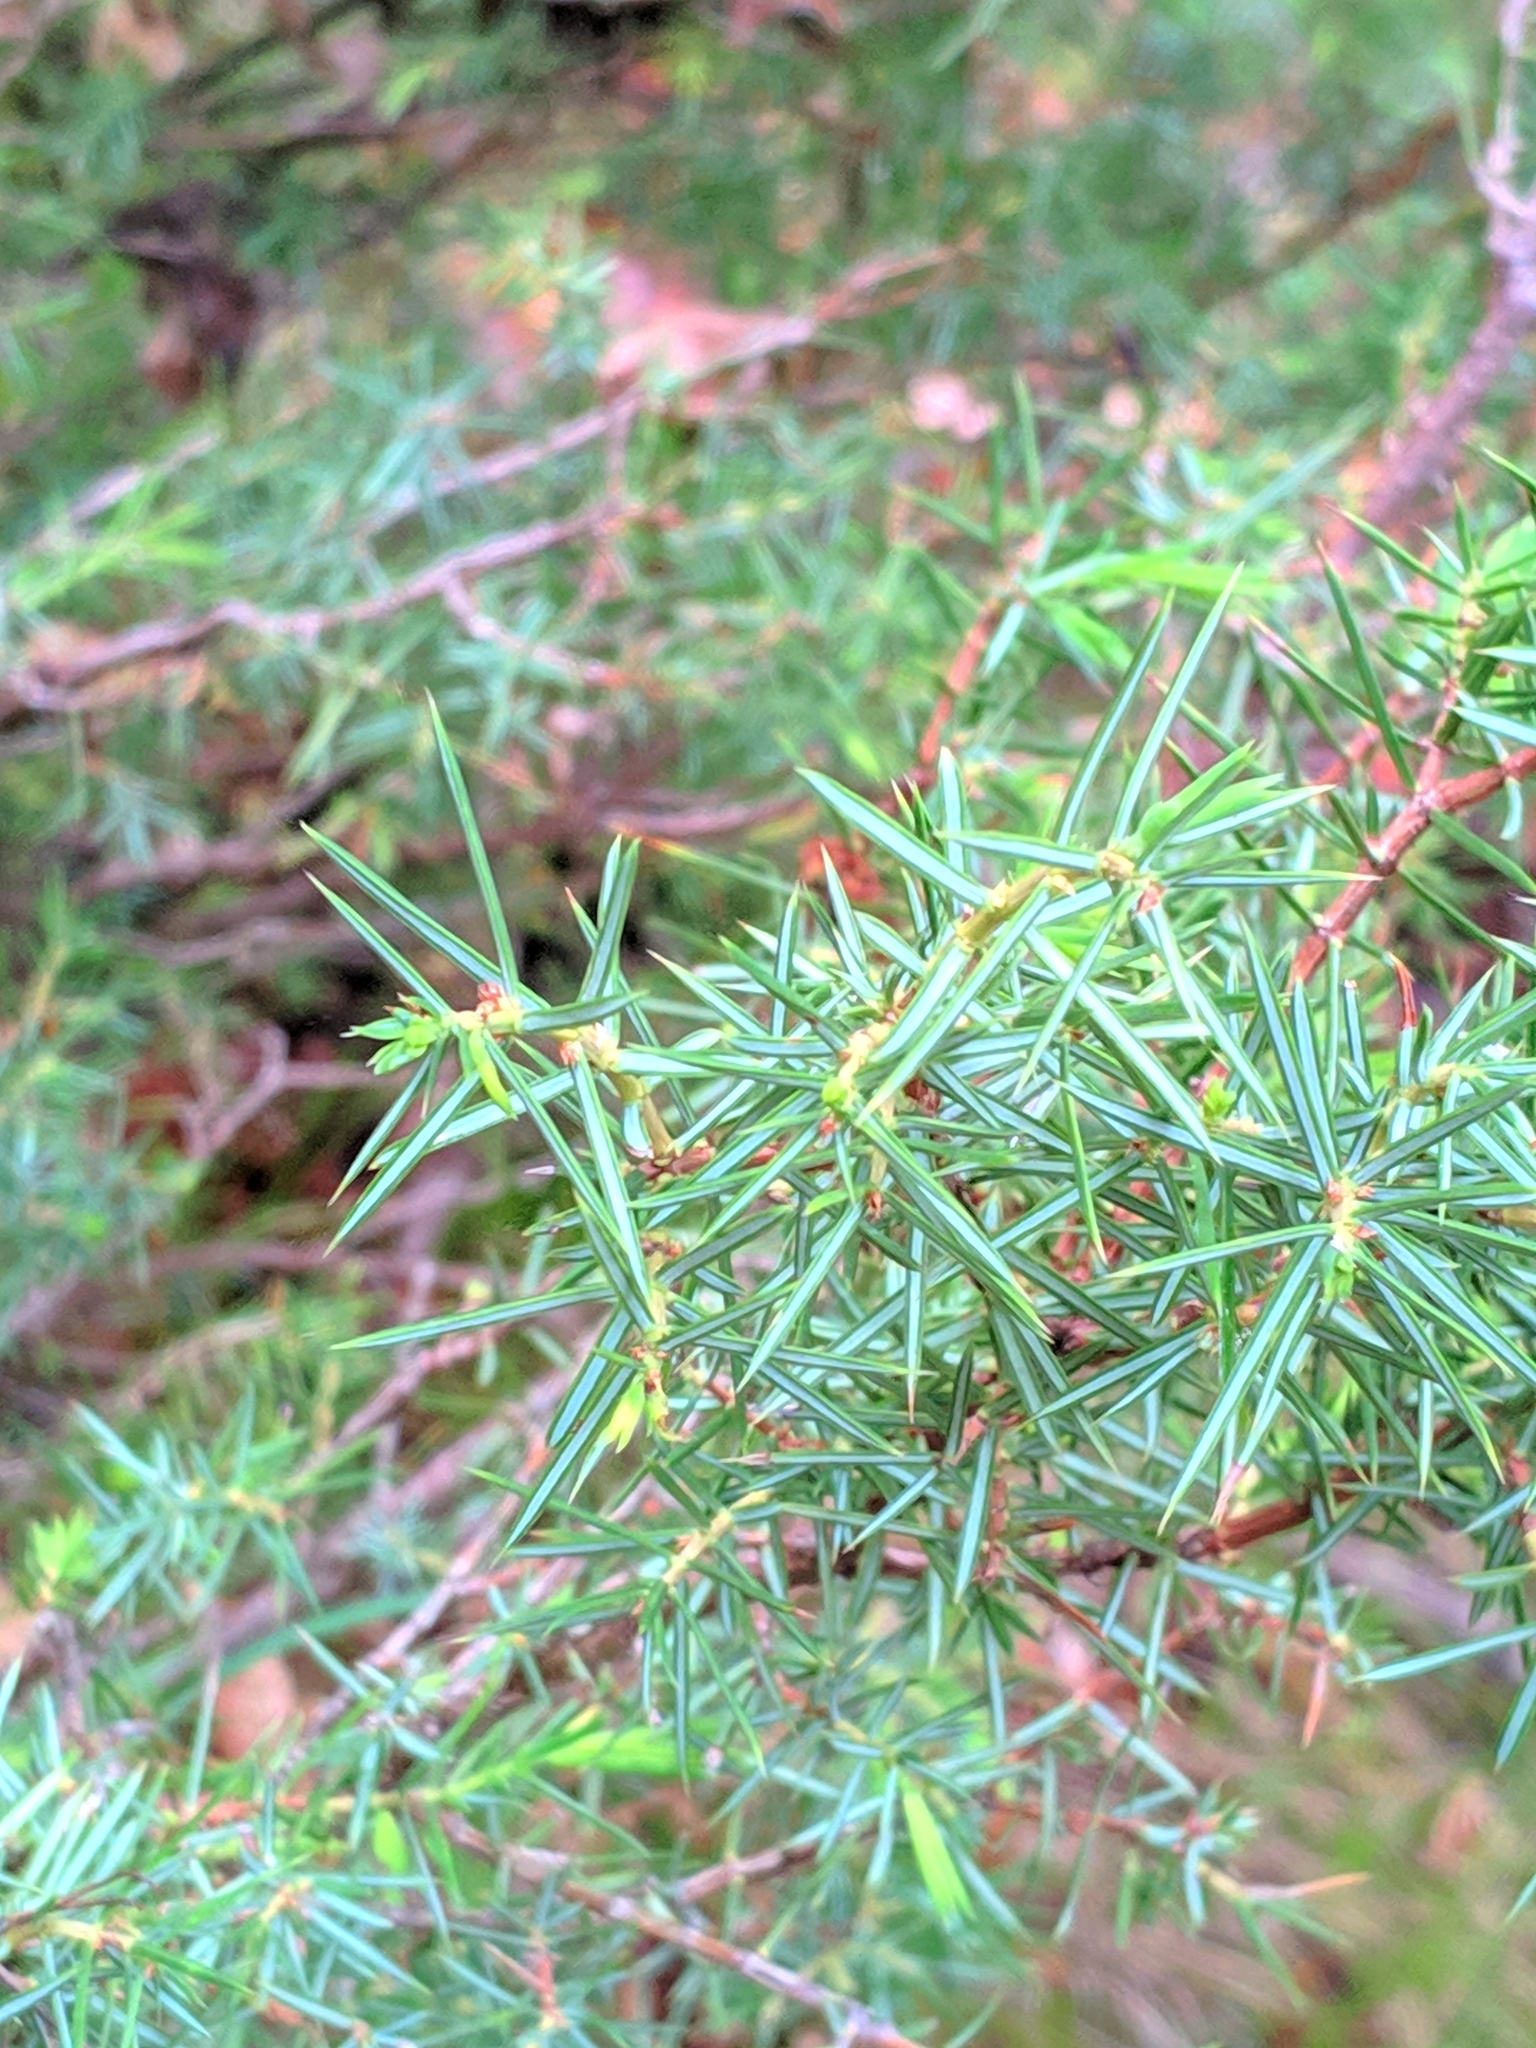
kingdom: Plantae
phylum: Tracheophyta
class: Pinopsida
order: Pinales
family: Cupressaceae
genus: Juniperus
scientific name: Juniperus communis
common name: Common juniper
